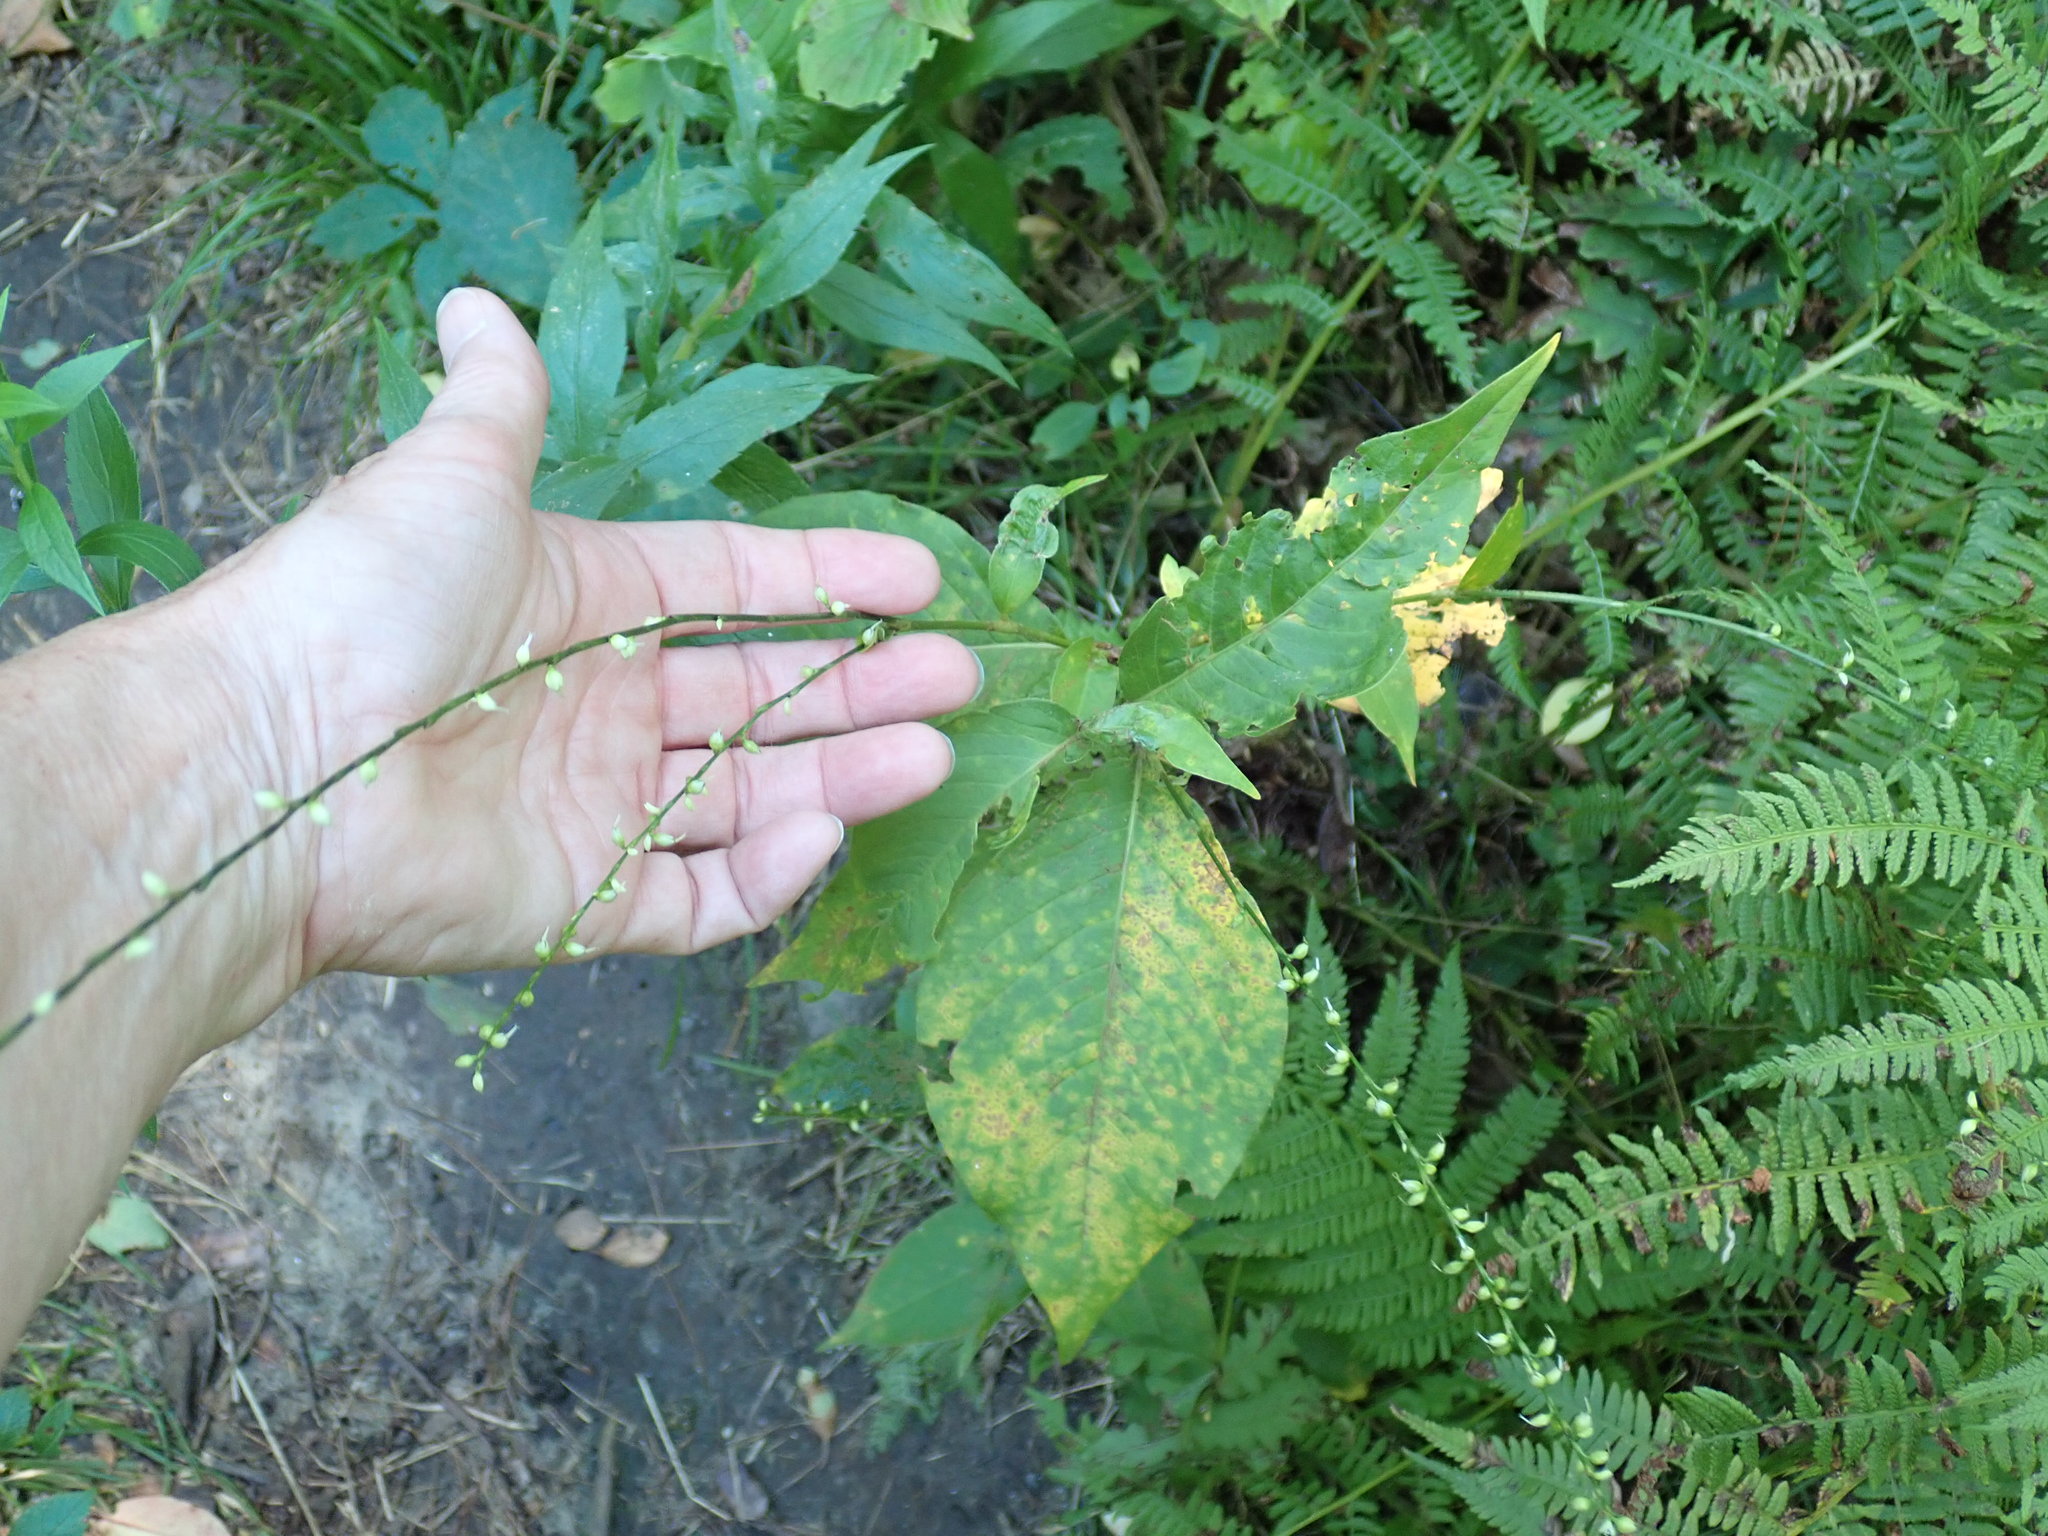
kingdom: Plantae
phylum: Tracheophyta
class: Magnoliopsida
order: Caryophyllales
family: Polygonaceae
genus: Persicaria
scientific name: Persicaria virginiana
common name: Jumpseed
